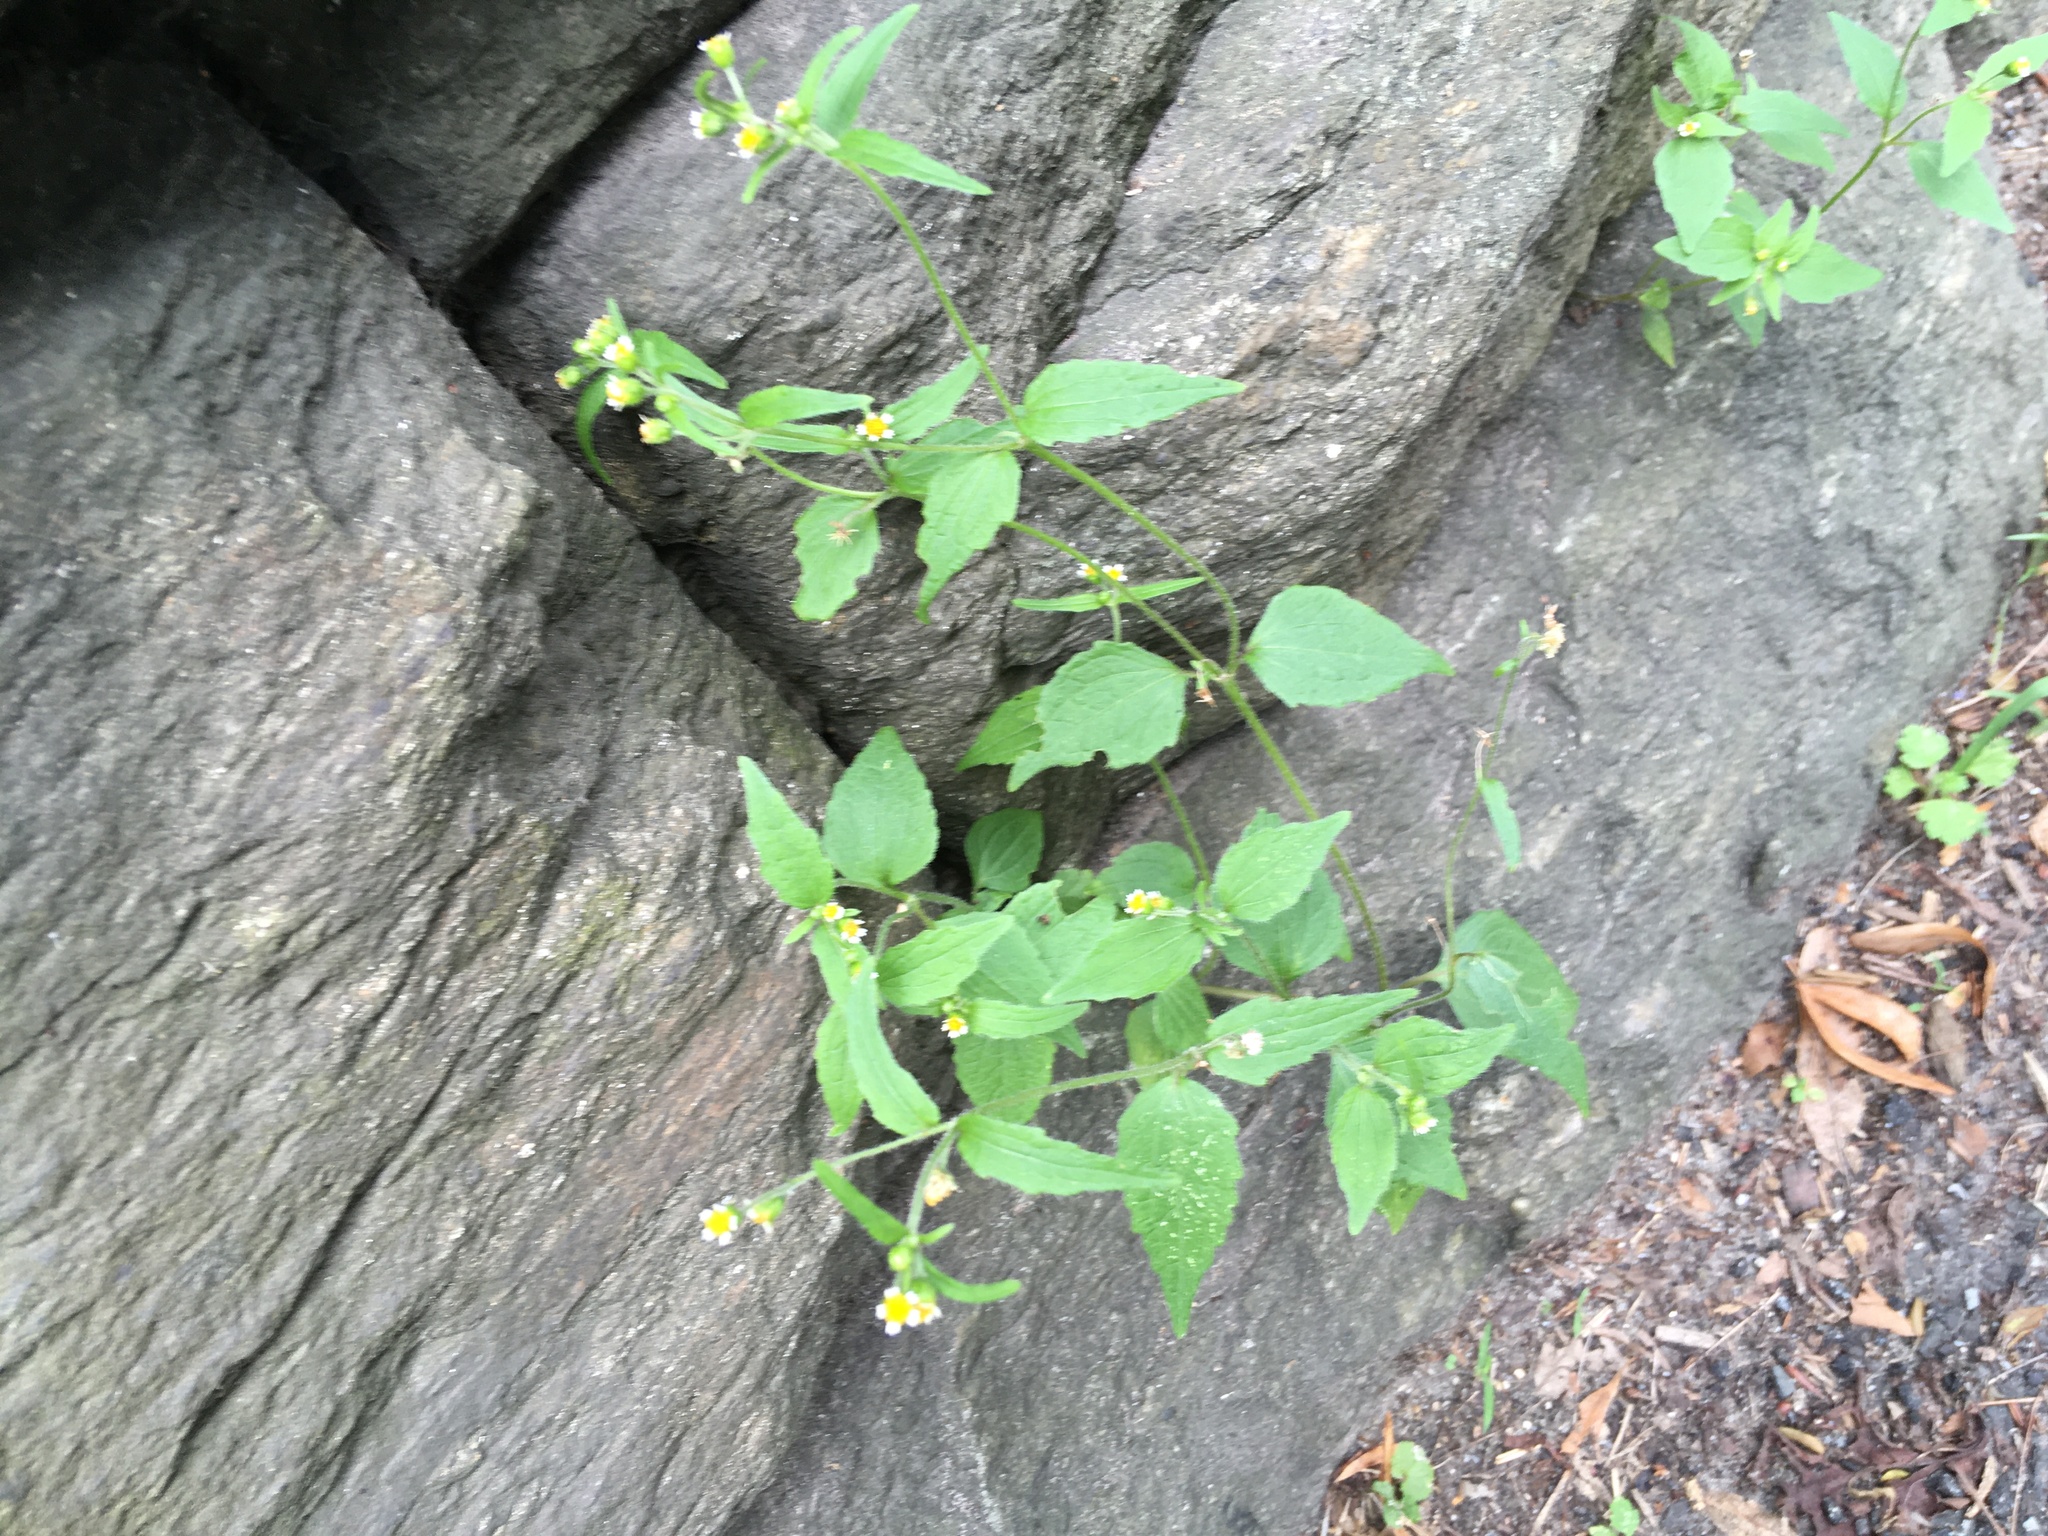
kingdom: Plantae
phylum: Tracheophyta
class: Magnoliopsida
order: Asterales
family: Asteraceae
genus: Galinsoga
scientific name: Galinsoga quadriradiata
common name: Shaggy soldier
